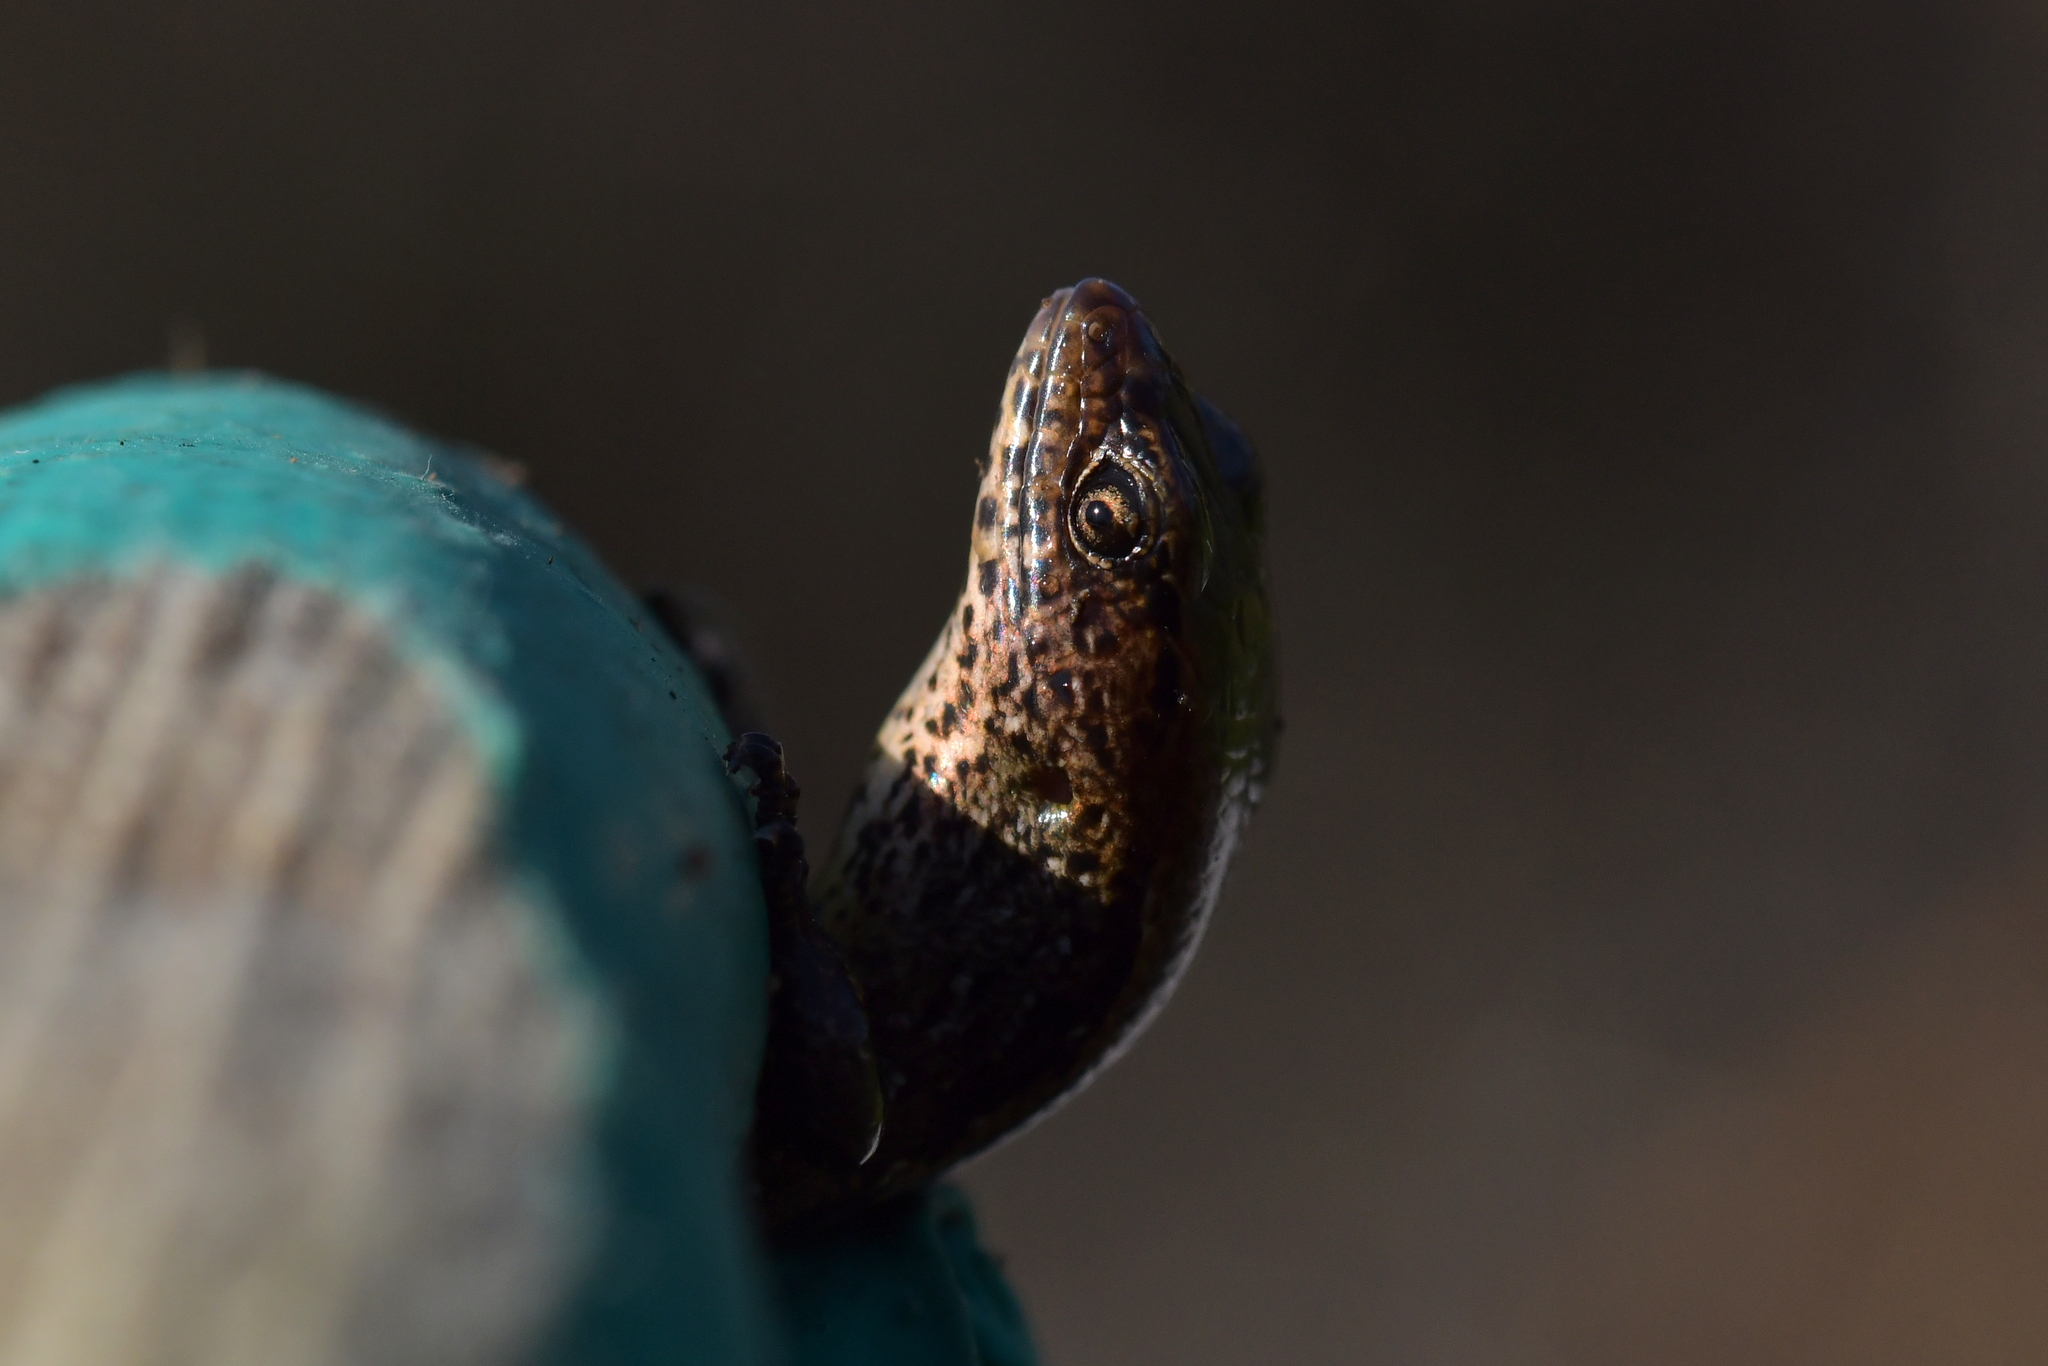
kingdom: Animalia
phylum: Chordata
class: Squamata
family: Scincidae
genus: Oligosoma
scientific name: Oligosoma aeneum
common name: Copper skink
